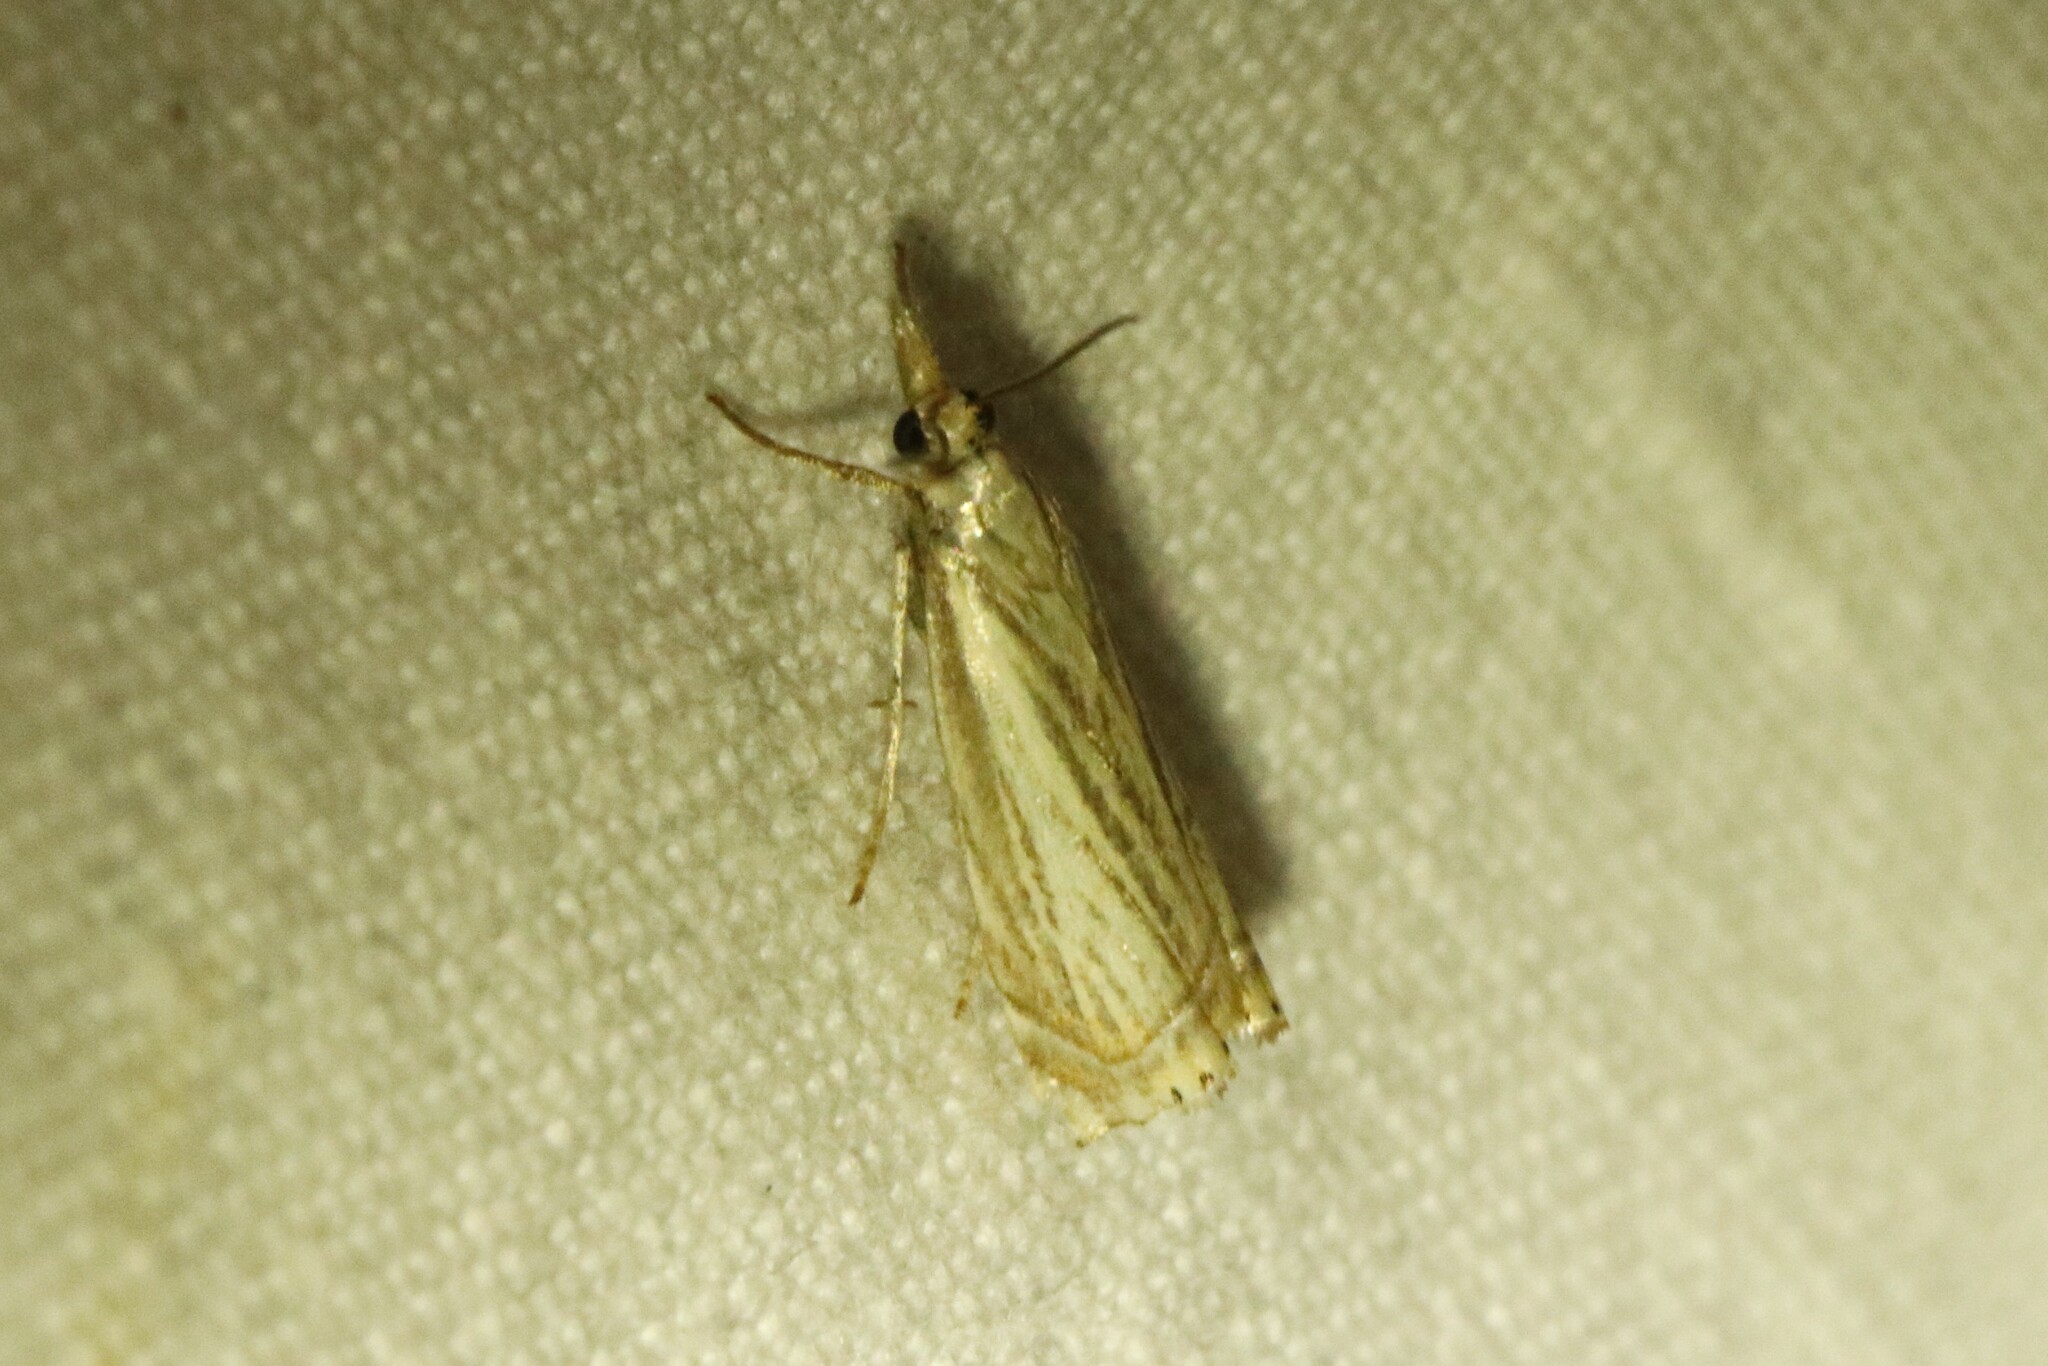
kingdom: Animalia
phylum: Arthropoda
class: Insecta
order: Lepidoptera
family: Crambidae
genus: Chrysoteuchia
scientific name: Chrysoteuchia topiarius
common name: Topiary grass-veneer
